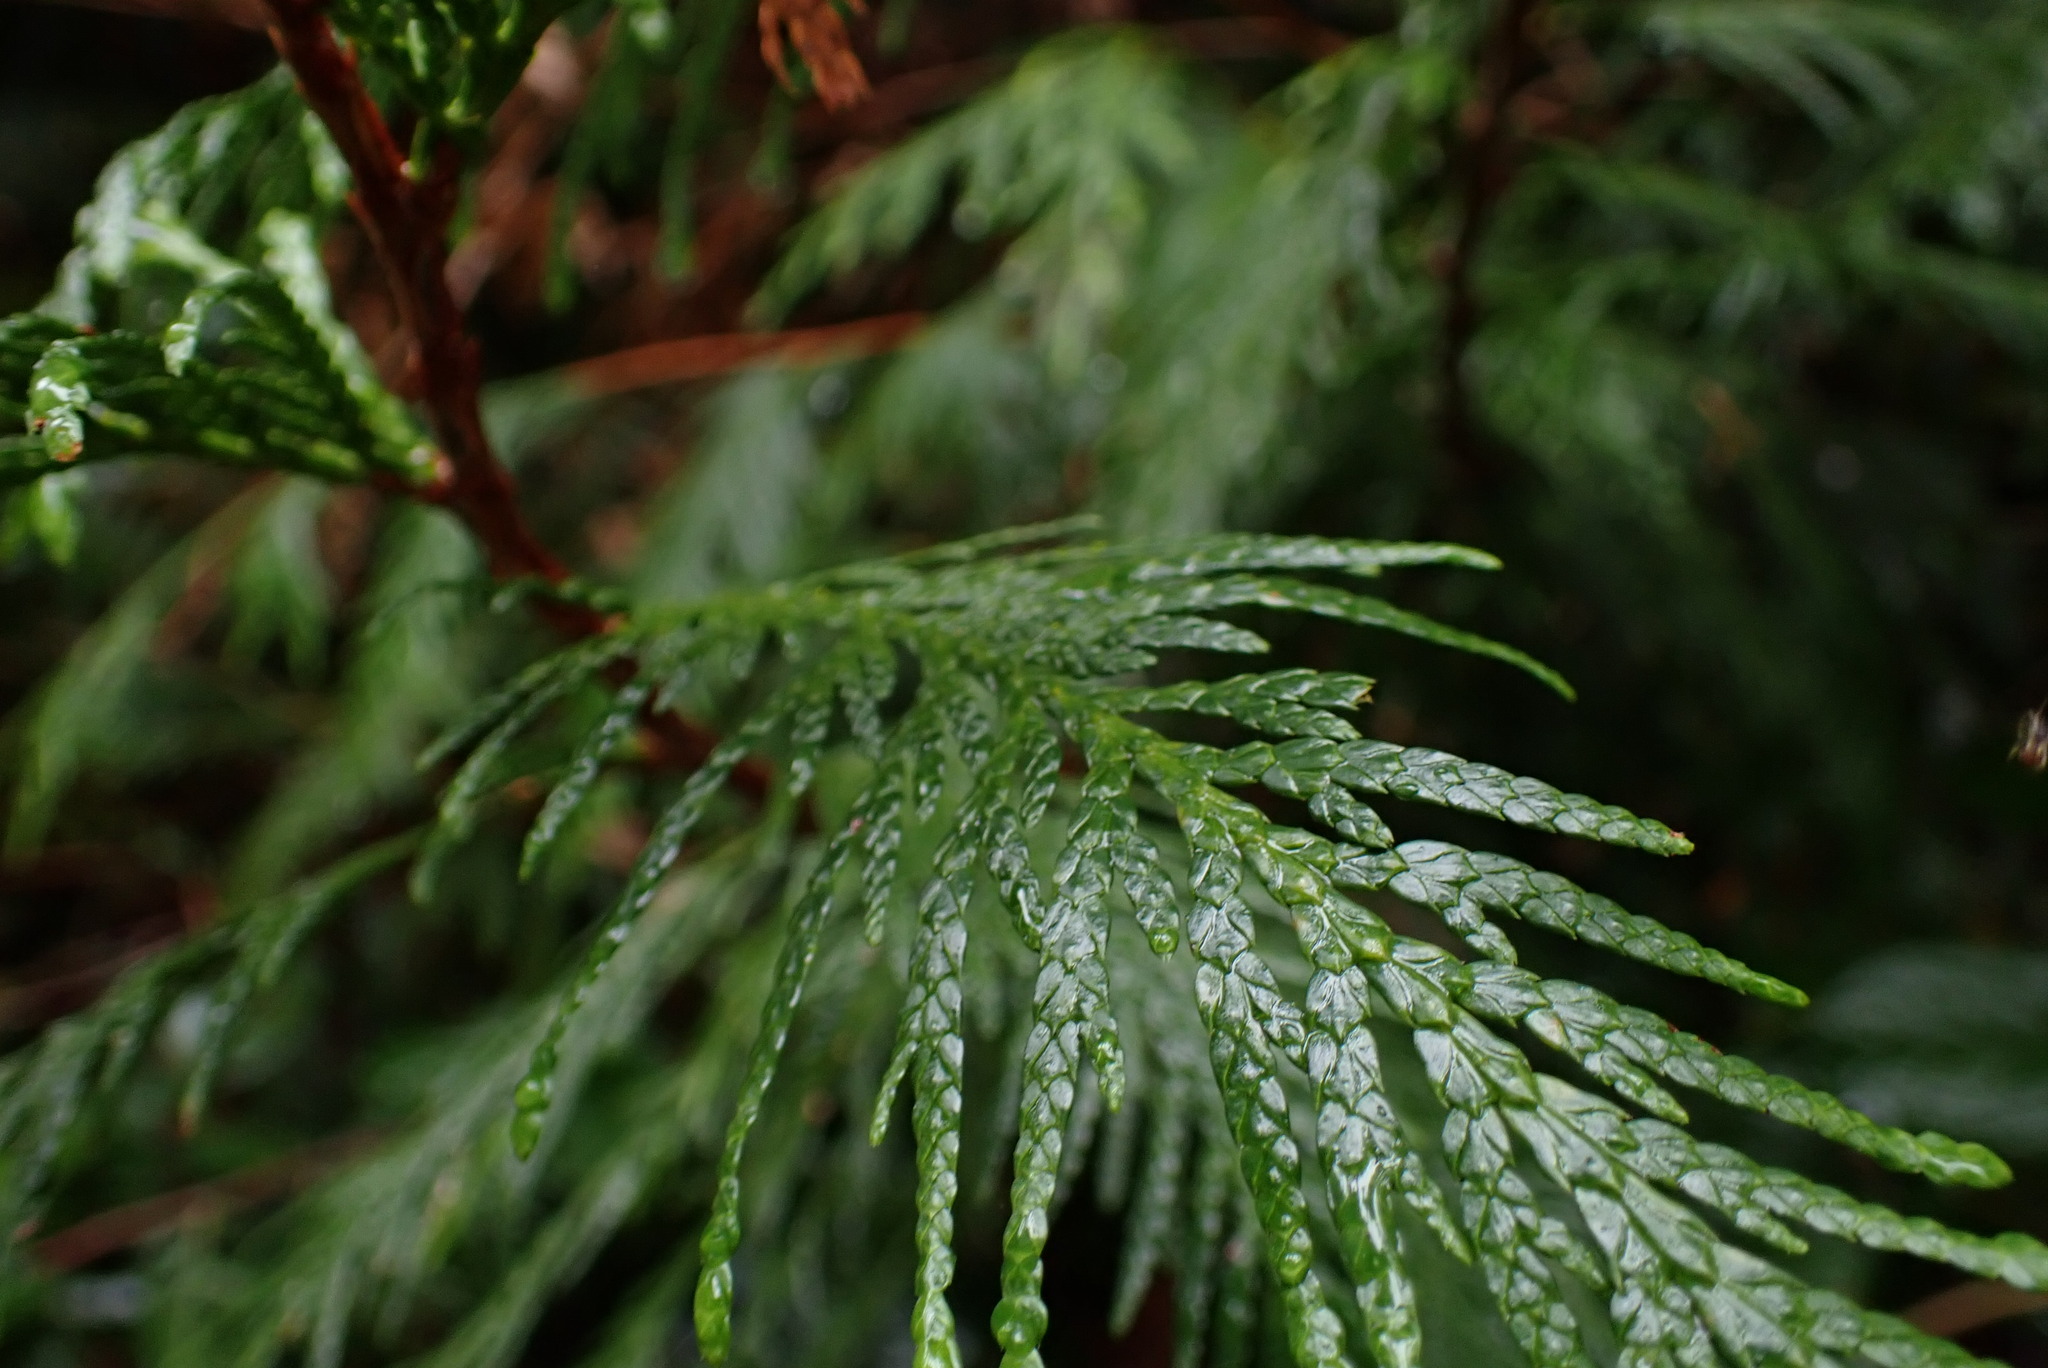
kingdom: Plantae
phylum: Tracheophyta
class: Pinopsida
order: Pinales
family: Cupressaceae
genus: Thuja
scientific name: Thuja plicata
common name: Western red-cedar
